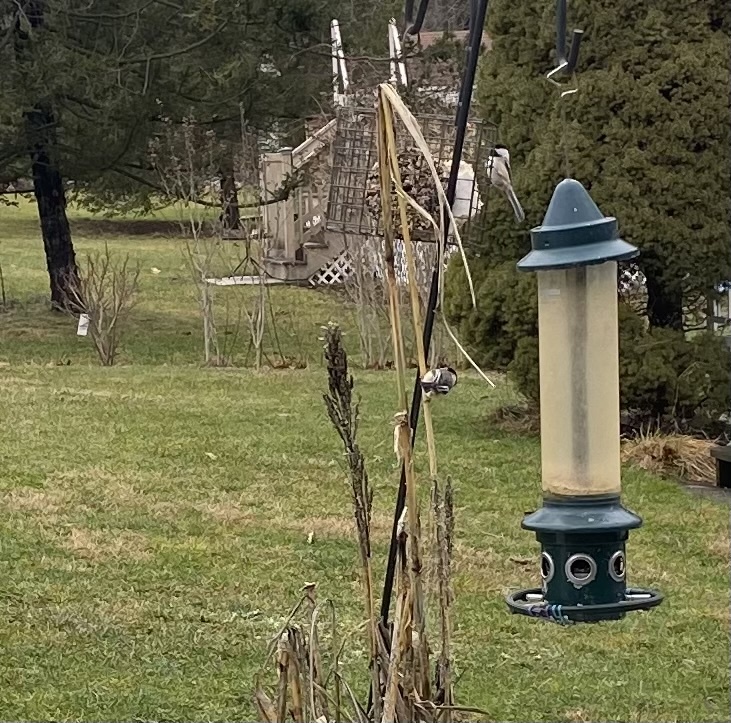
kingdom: Animalia
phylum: Chordata
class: Aves
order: Passeriformes
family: Paridae
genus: Poecile
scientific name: Poecile atricapillus
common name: Black-capped chickadee
